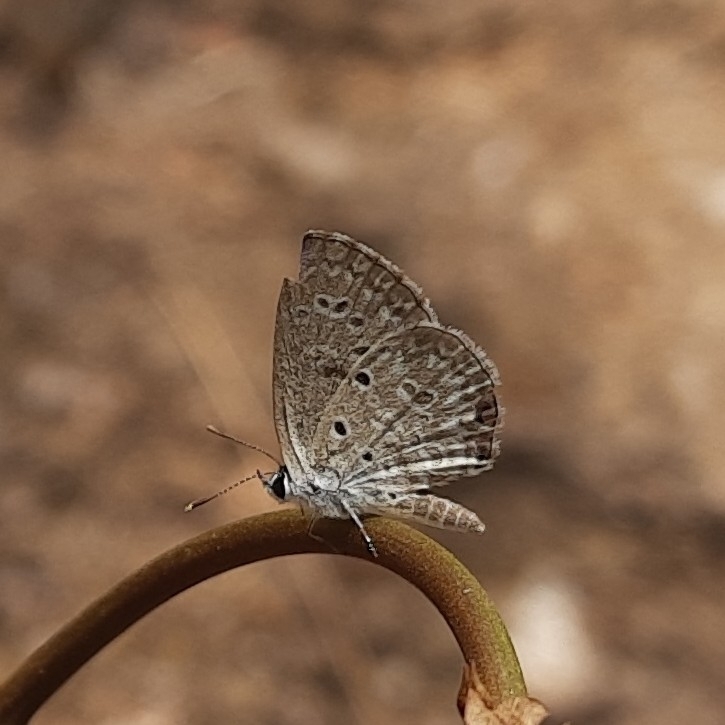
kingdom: Animalia
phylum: Arthropoda
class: Insecta
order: Lepidoptera
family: Lycaenidae
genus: Chilades
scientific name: Chilades laius
